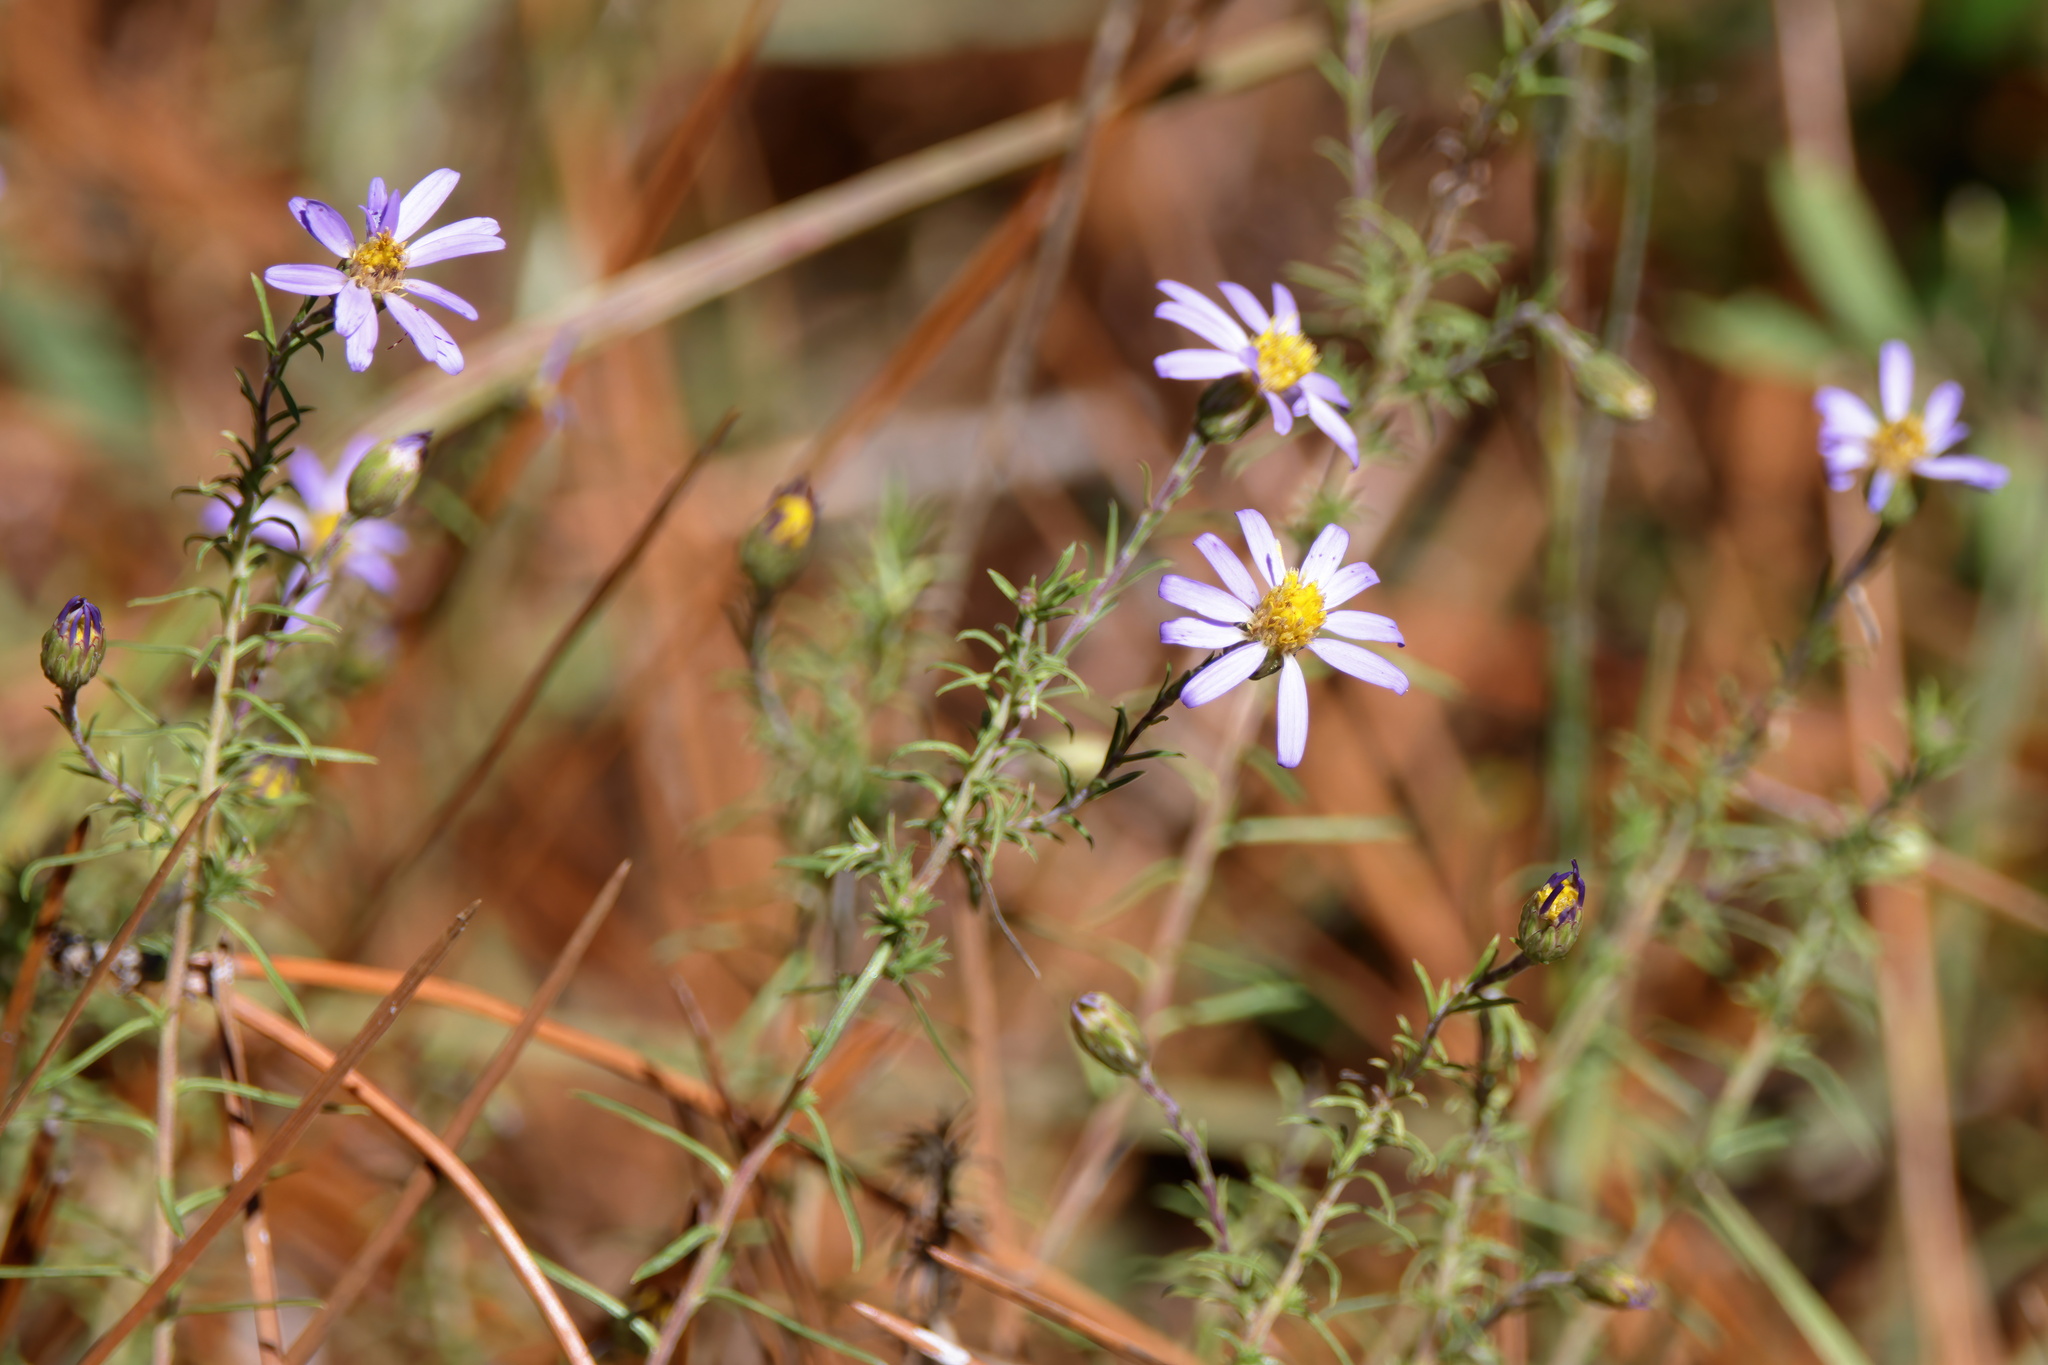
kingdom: Plantae
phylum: Tracheophyta
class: Magnoliopsida
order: Asterales
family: Asteraceae
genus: Ionactis
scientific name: Ionactis repens
